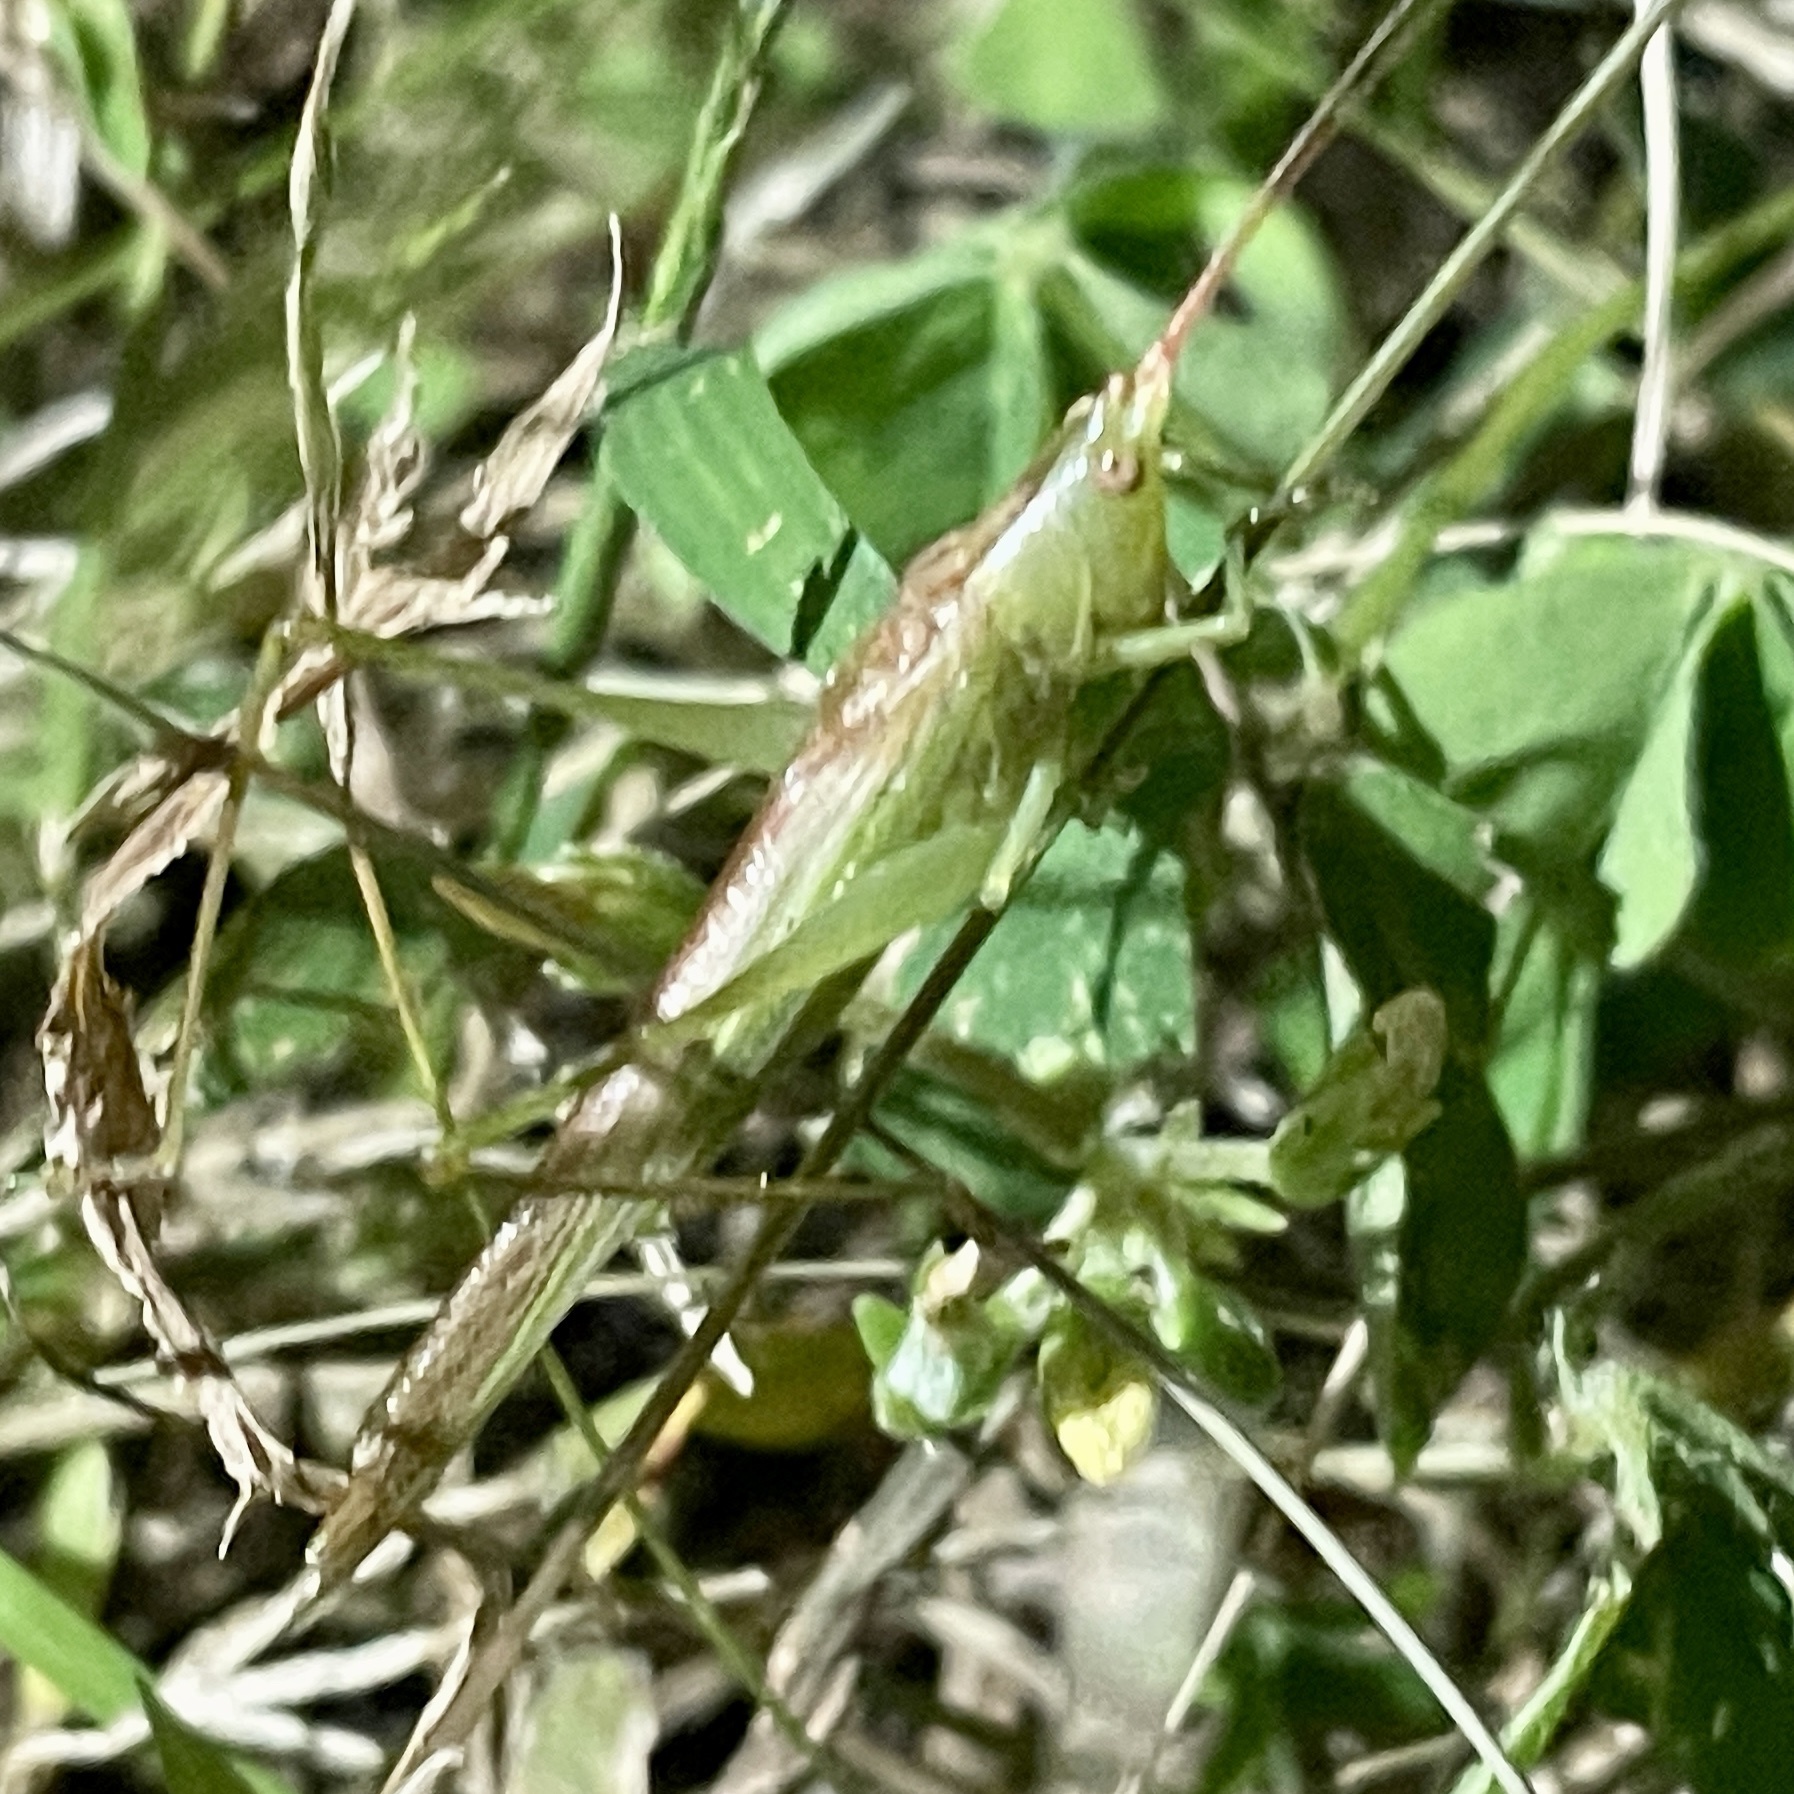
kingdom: Animalia
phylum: Arthropoda
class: Insecta
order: Orthoptera
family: Tettigoniidae
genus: Conocephalus
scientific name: Conocephalus chinensis
